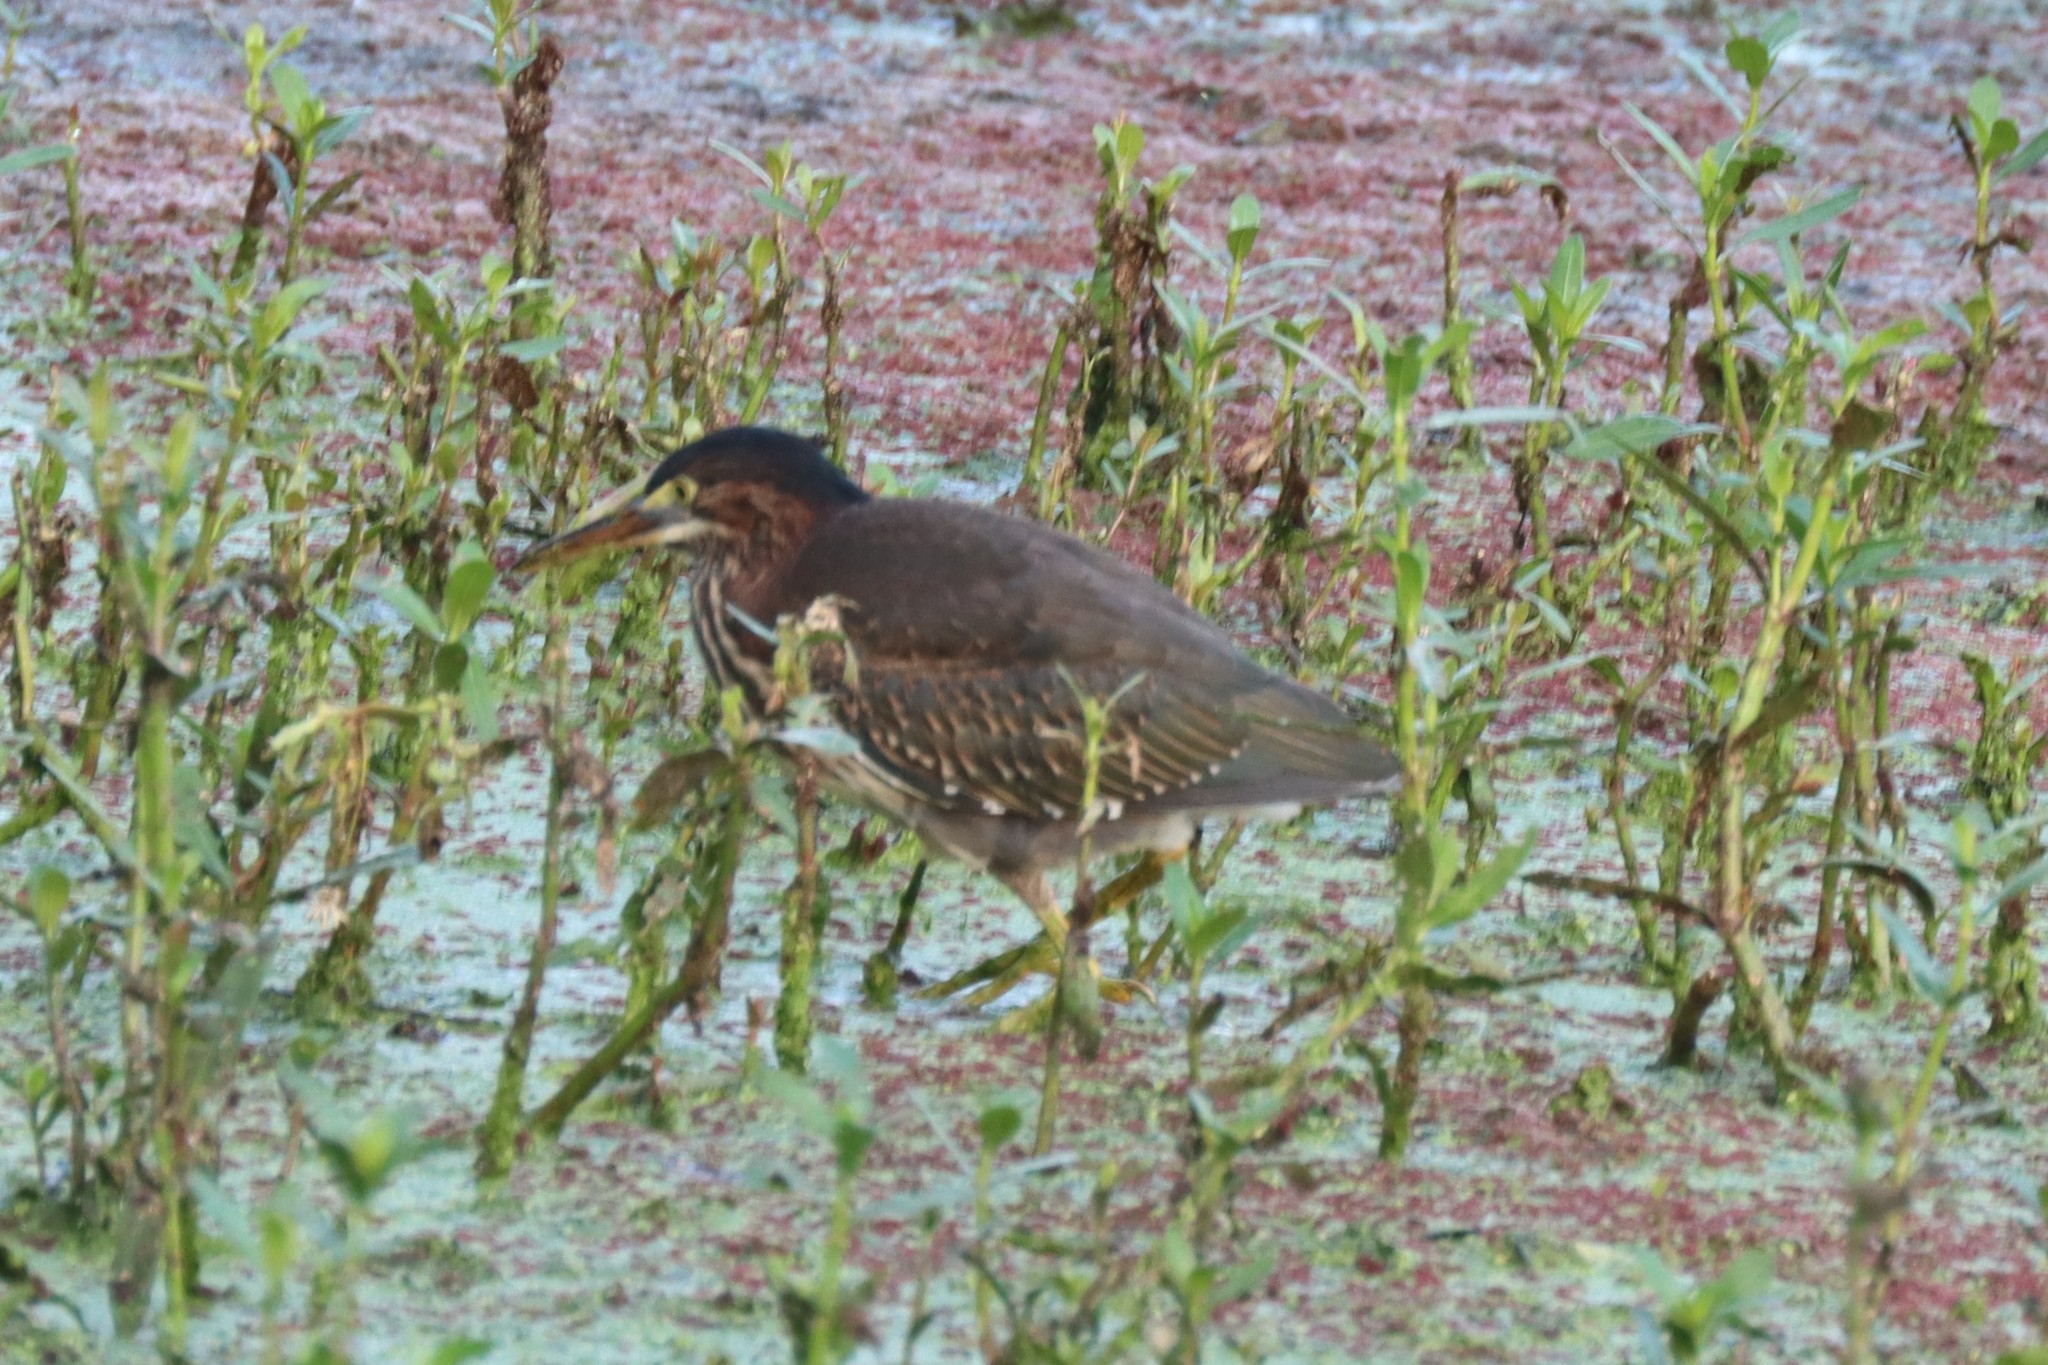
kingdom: Animalia
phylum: Chordata
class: Aves
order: Pelecaniformes
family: Ardeidae
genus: Butorides
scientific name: Butorides virescens
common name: Green heron
